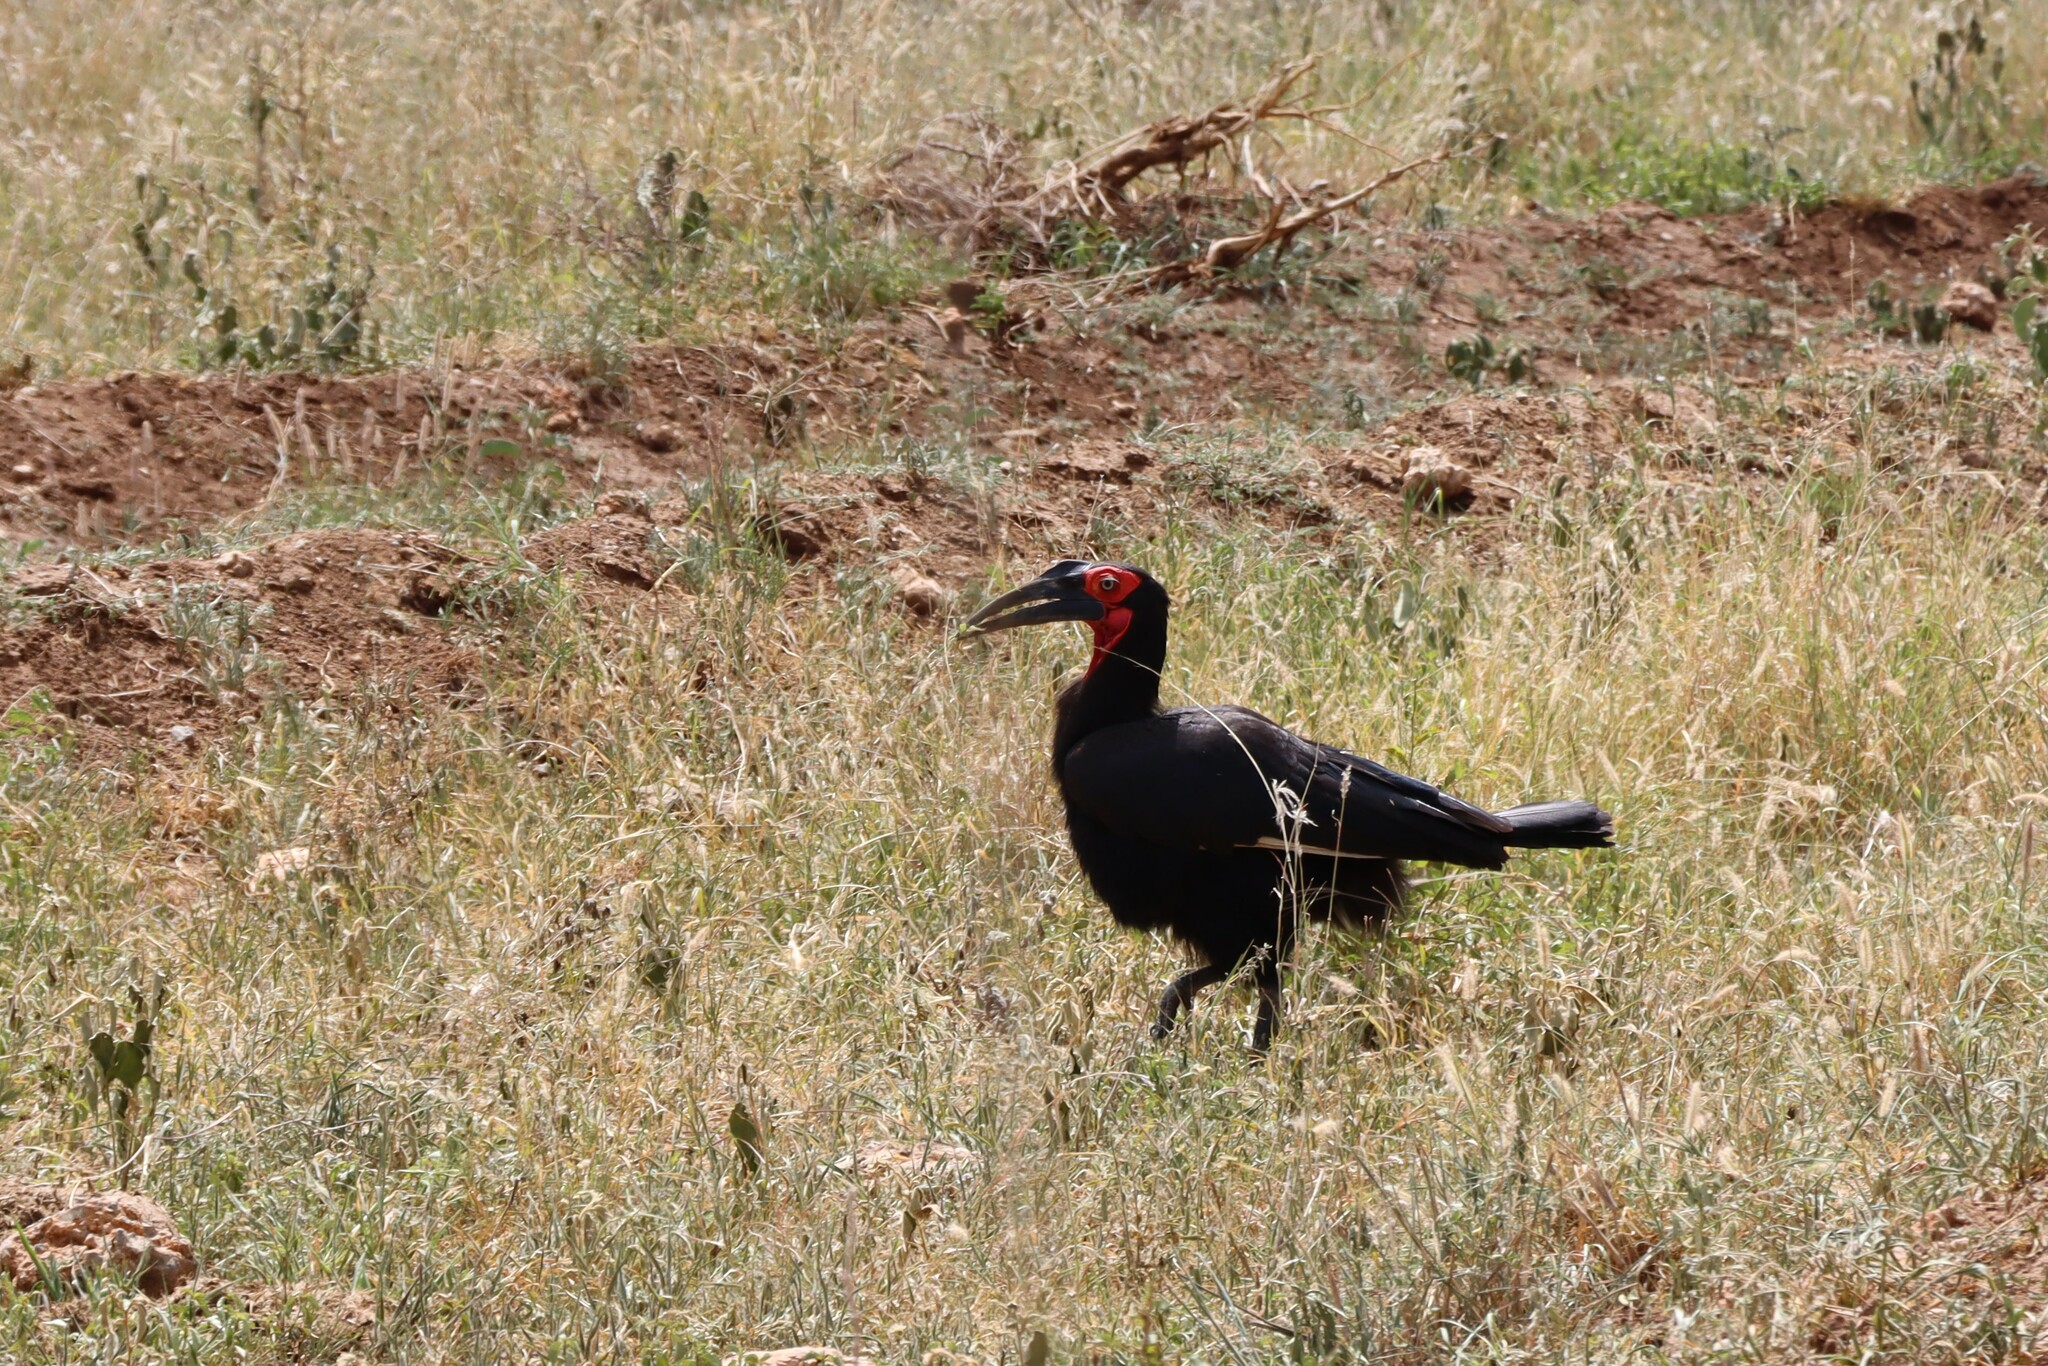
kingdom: Animalia
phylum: Chordata
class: Aves
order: Bucerotiformes
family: Bucorvidae
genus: Bucorvus
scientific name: Bucorvus leadbeateri
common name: Southern ground-hornbill
